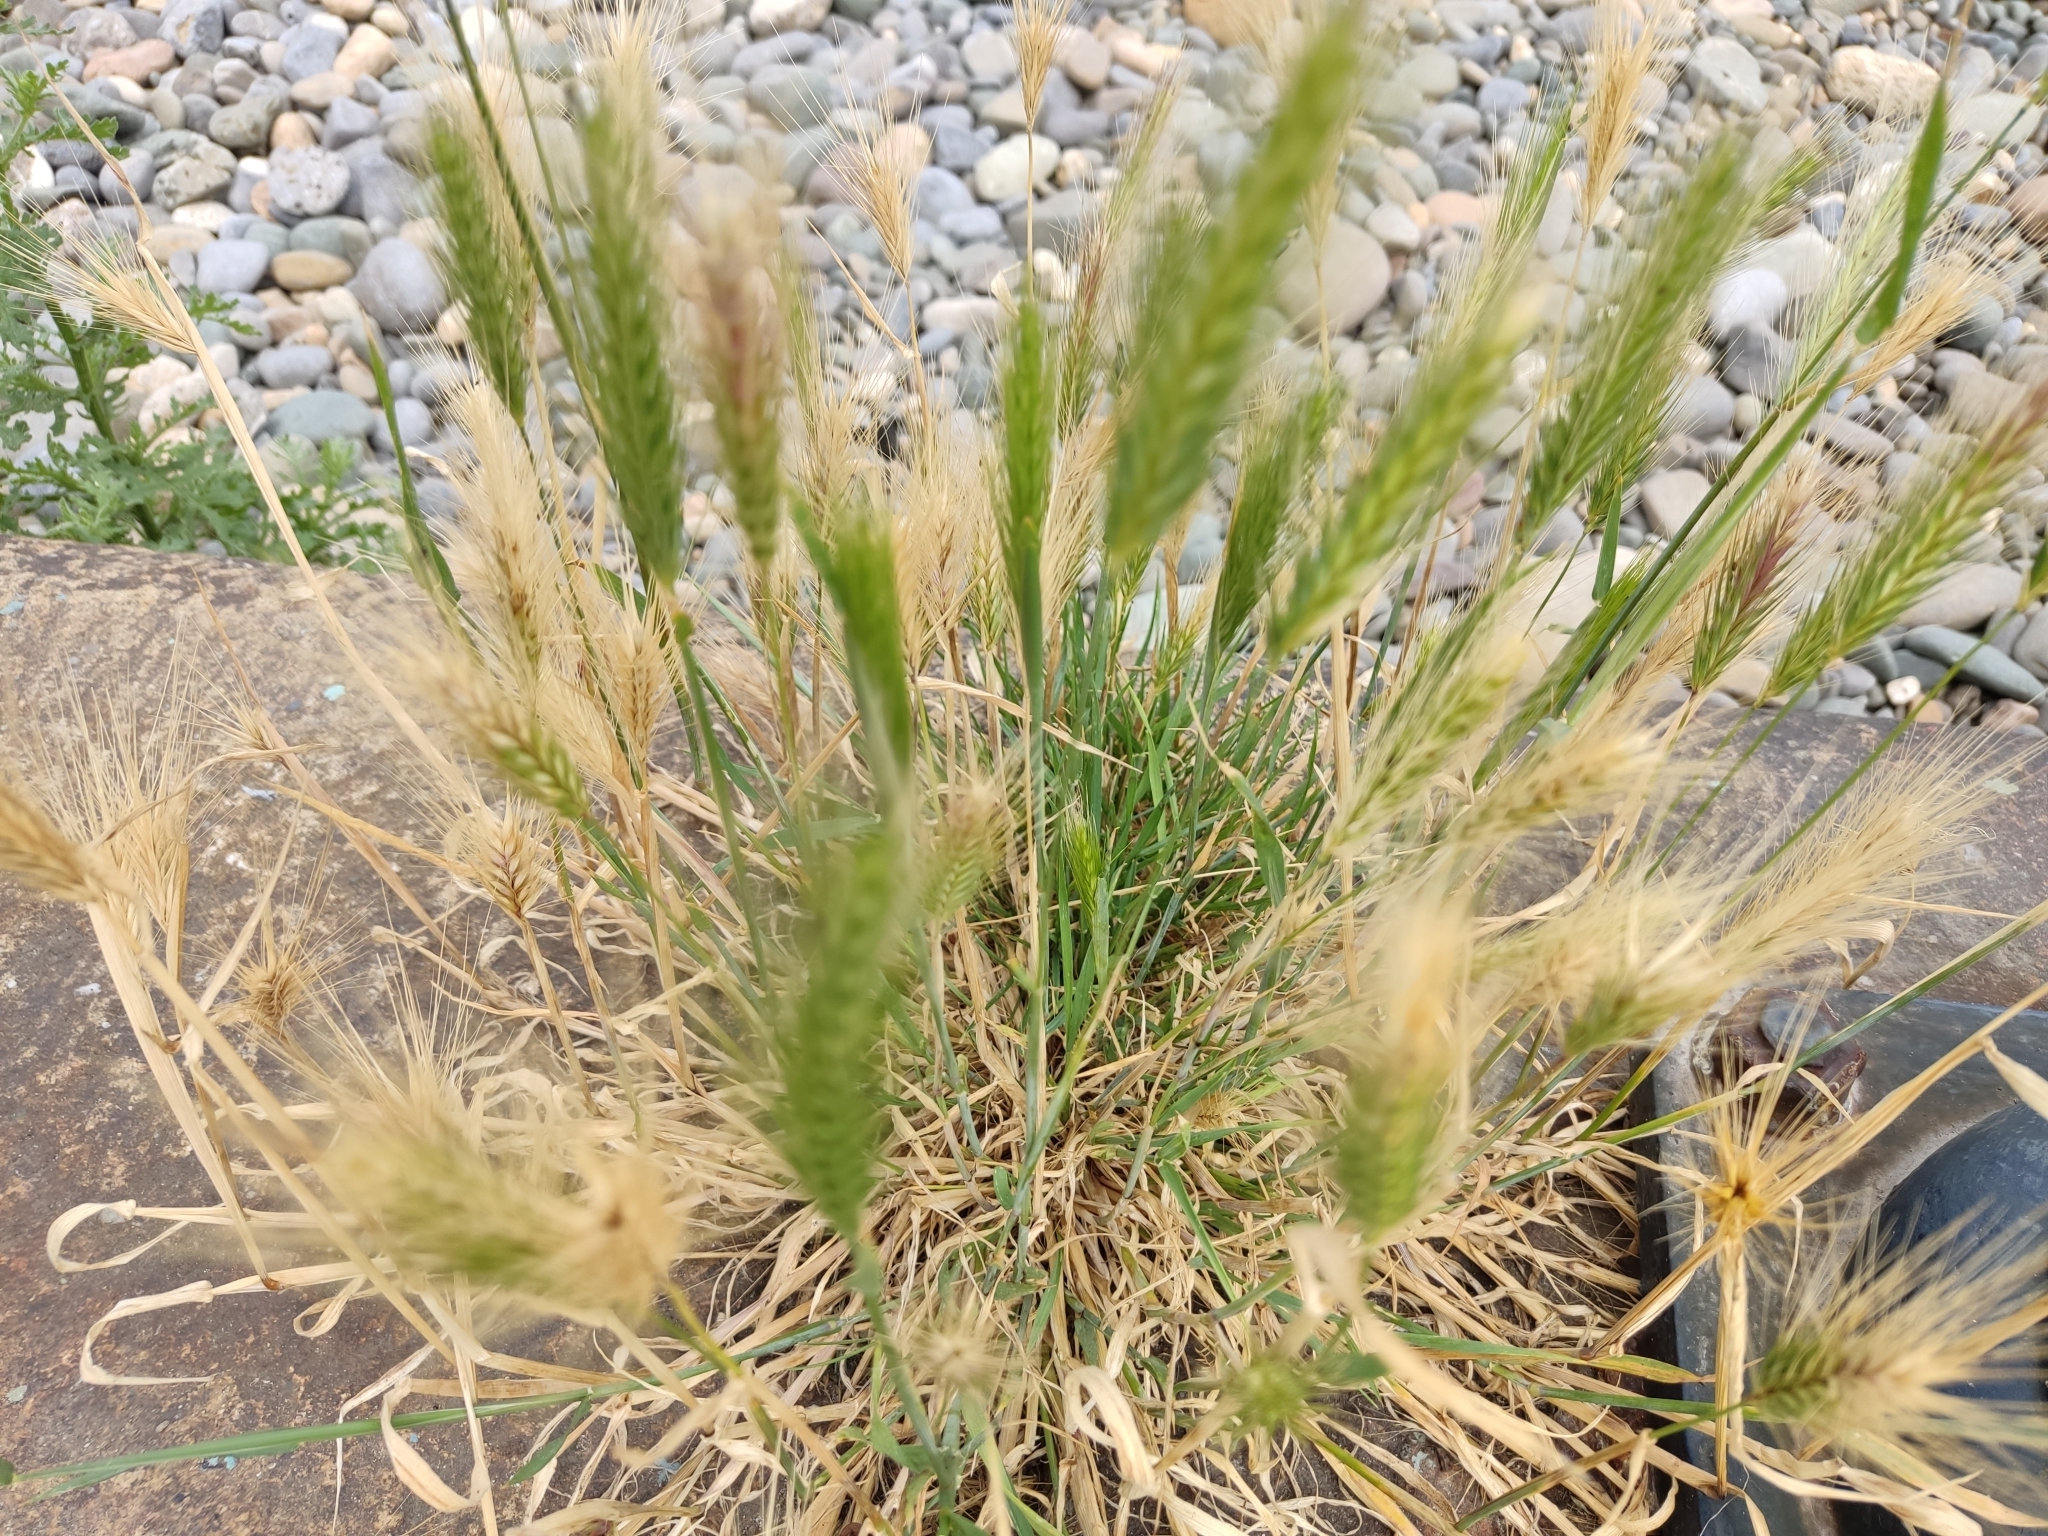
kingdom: Plantae
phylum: Tracheophyta
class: Liliopsida
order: Poales
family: Poaceae
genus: Hordeum
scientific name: Hordeum murinum
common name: Wall barley
